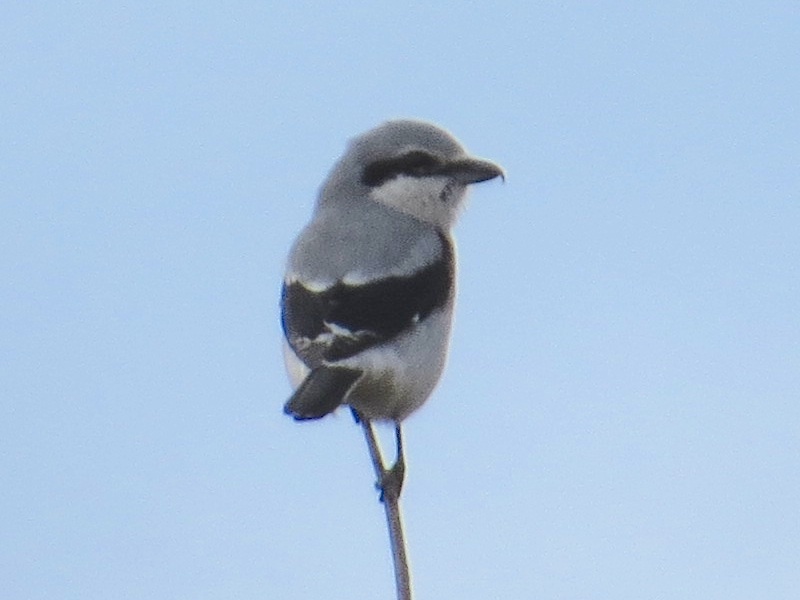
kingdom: Animalia
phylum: Chordata
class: Aves
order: Passeriformes
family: Laniidae
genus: Lanius
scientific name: Lanius borealis
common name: Northern shrike
